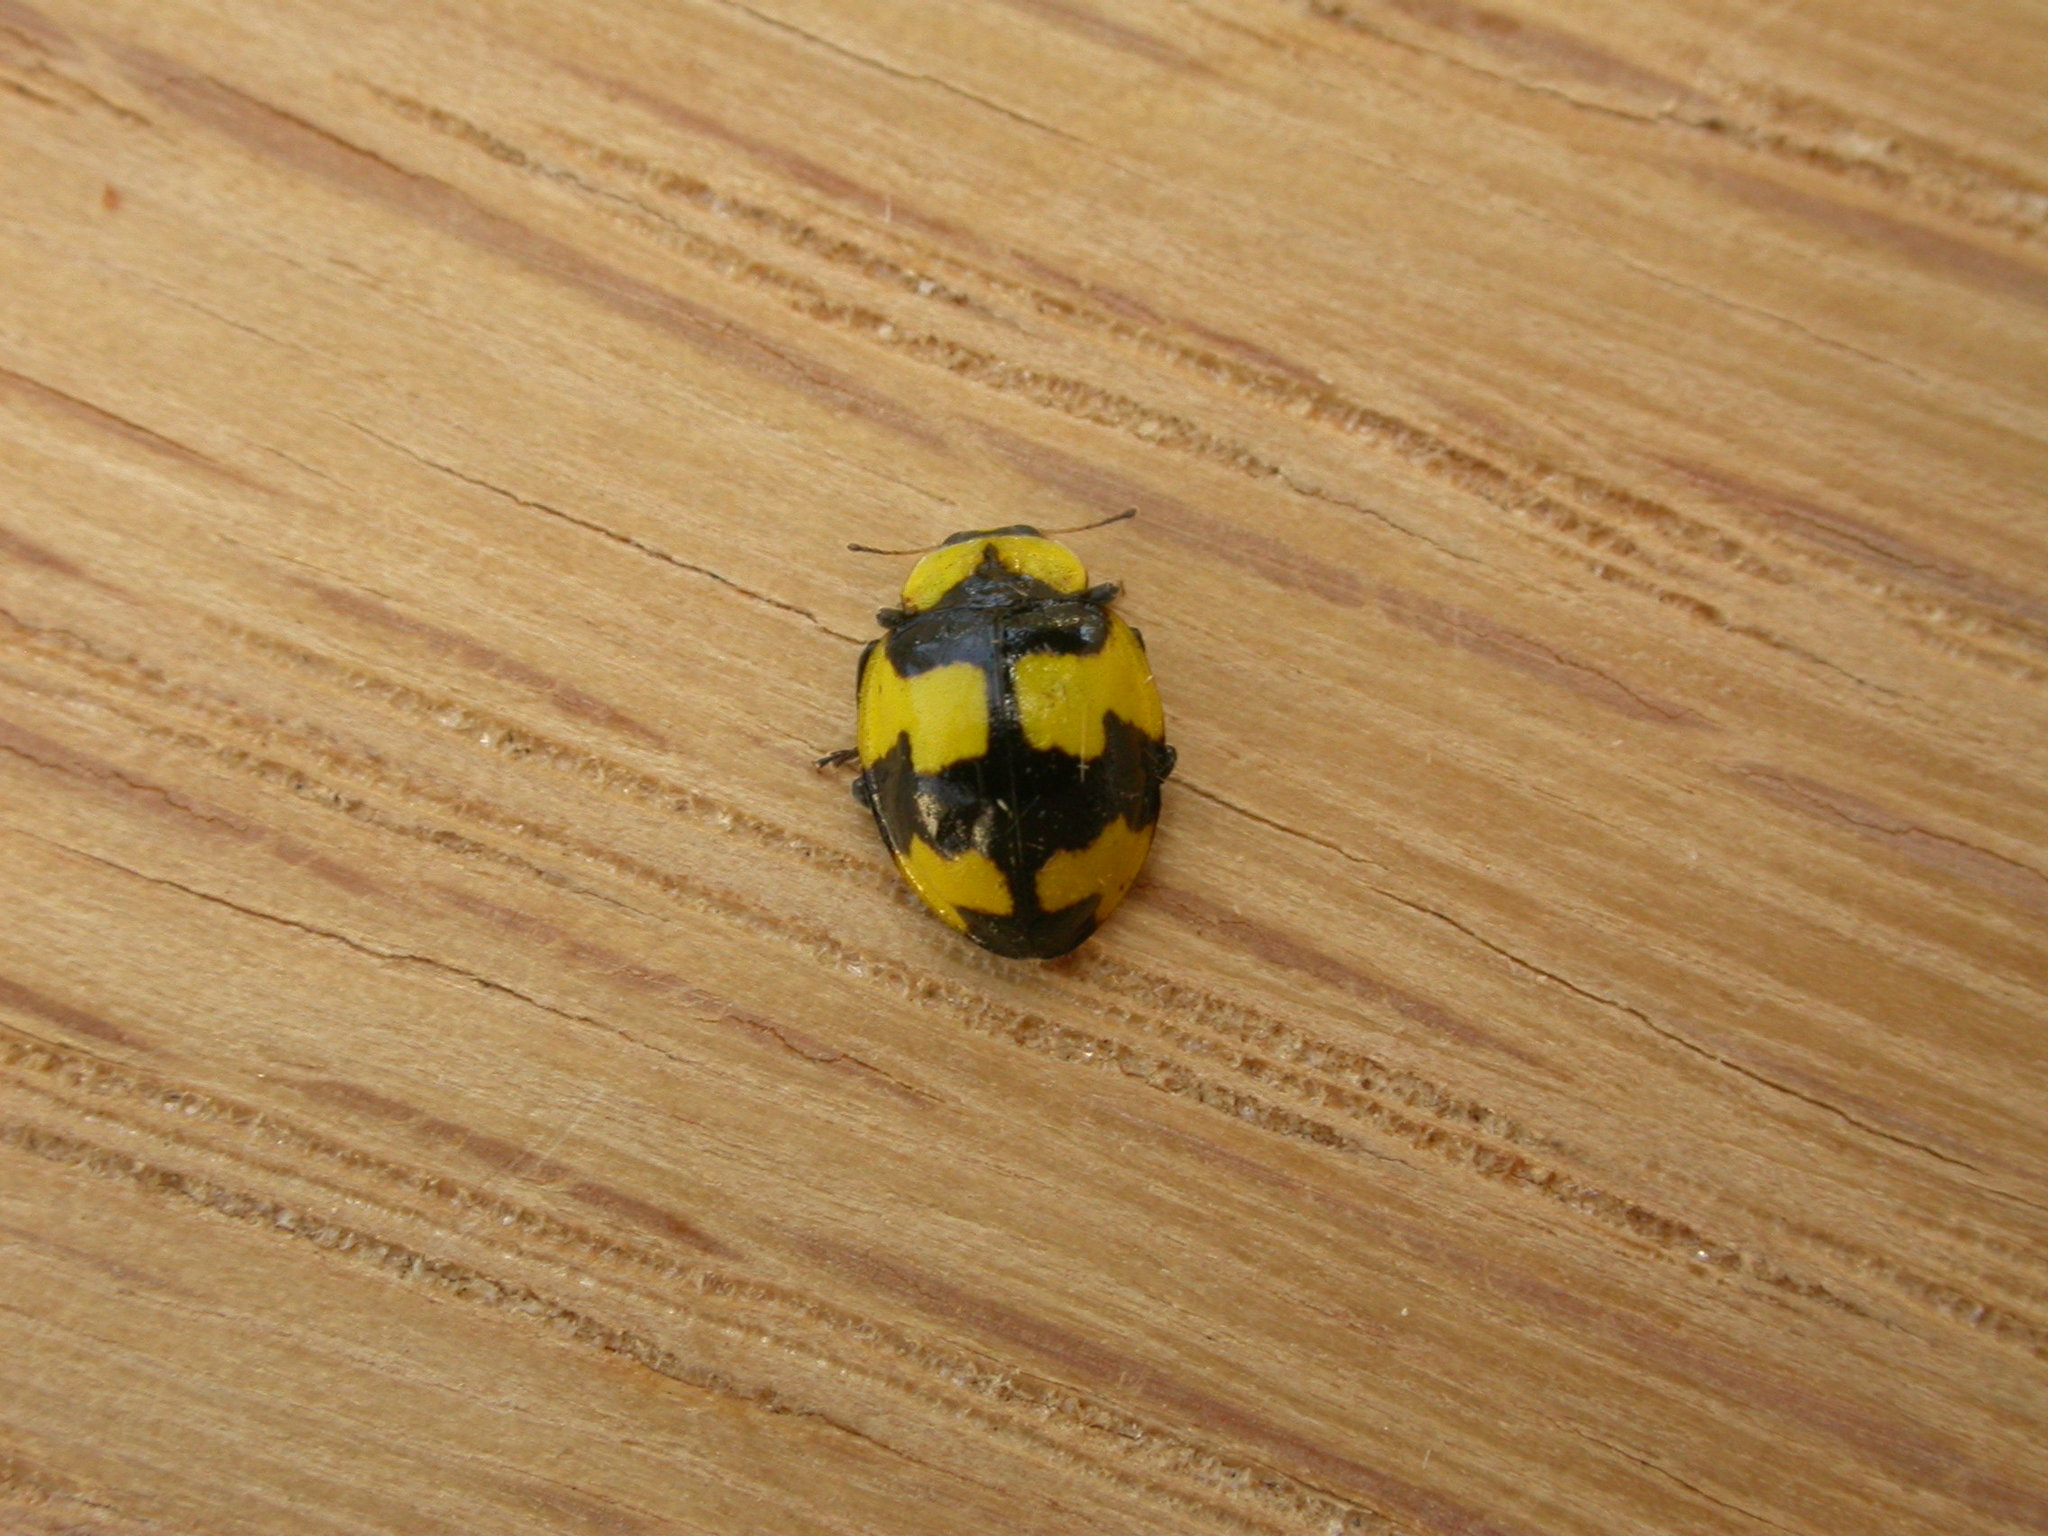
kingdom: Animalia
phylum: Arthropoda
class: Insecta
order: Coleoptera
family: Coccinellidae
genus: Illeis
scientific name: Illeis galbula
